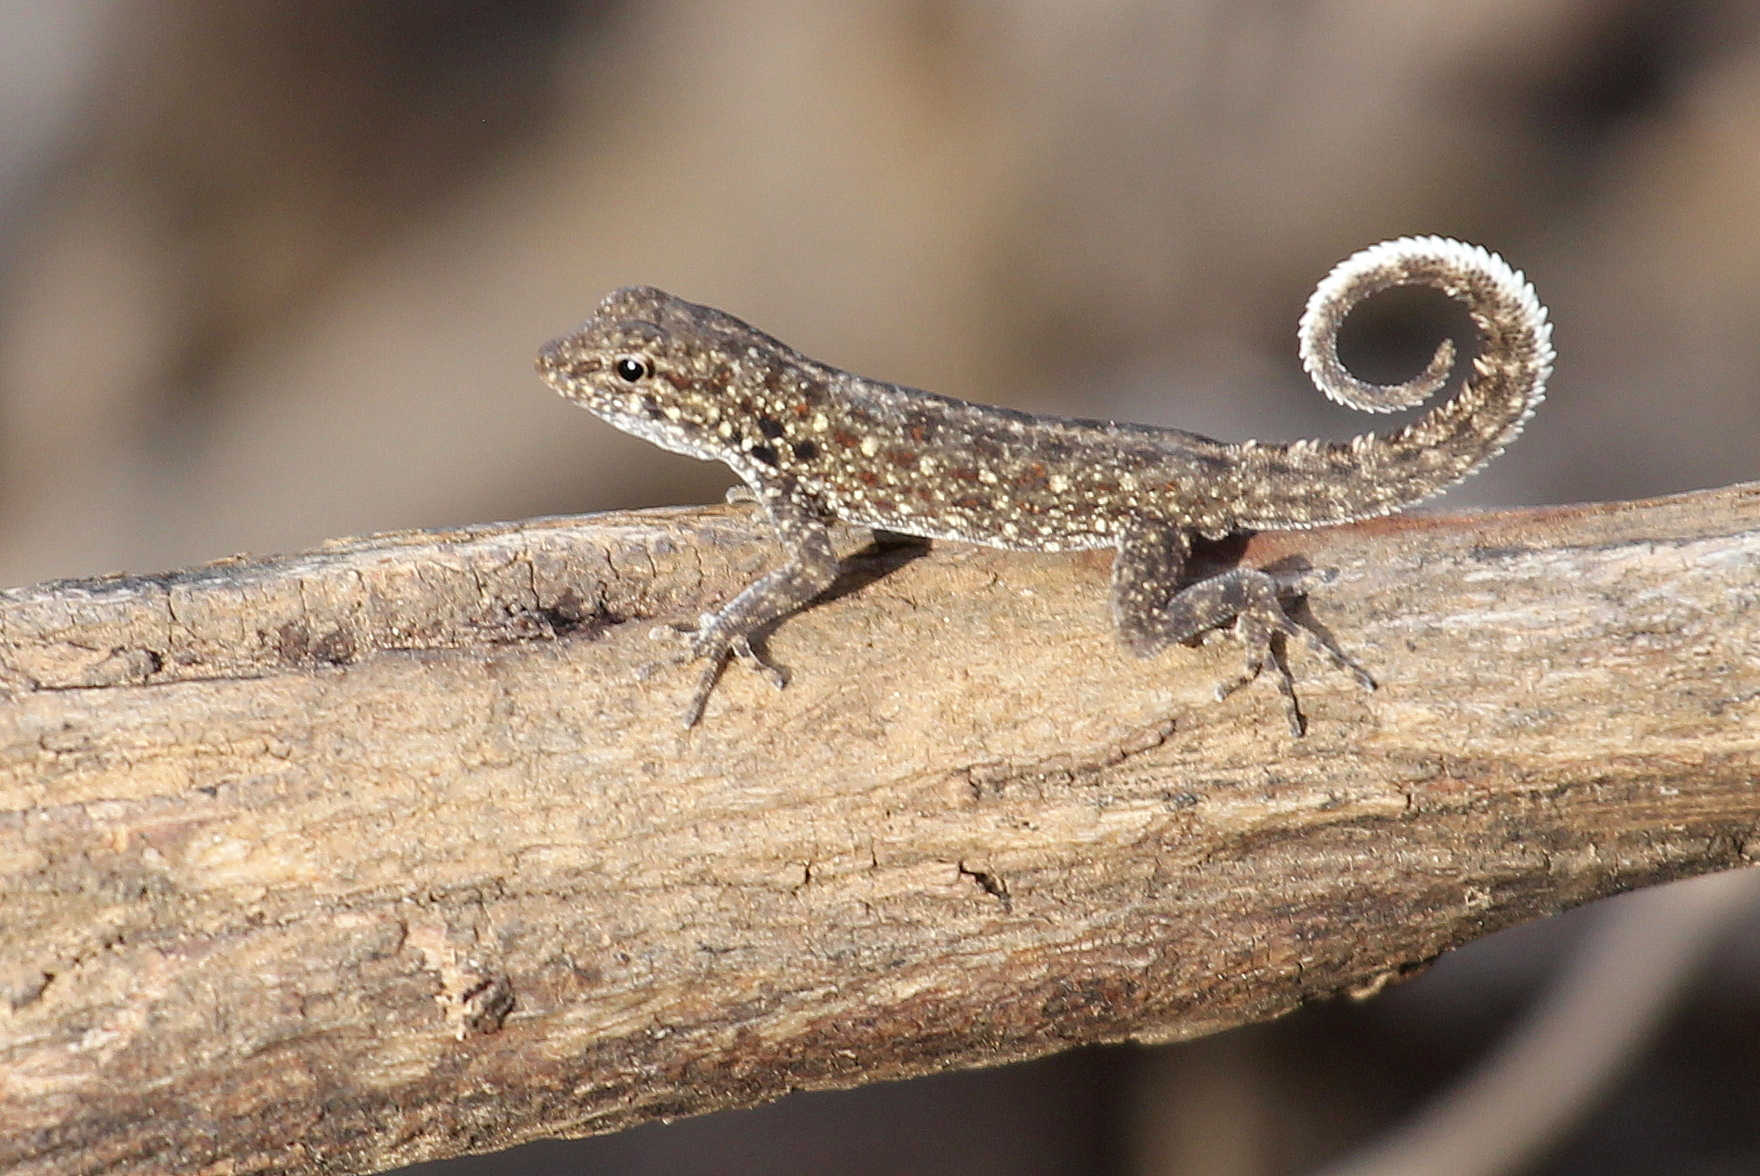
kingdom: Animalia
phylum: Chordata
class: Squamata
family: Sphaerodactylidae
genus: Pristurus
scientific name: Pristurus rupestris
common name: Blanford’s semaphore gecko
